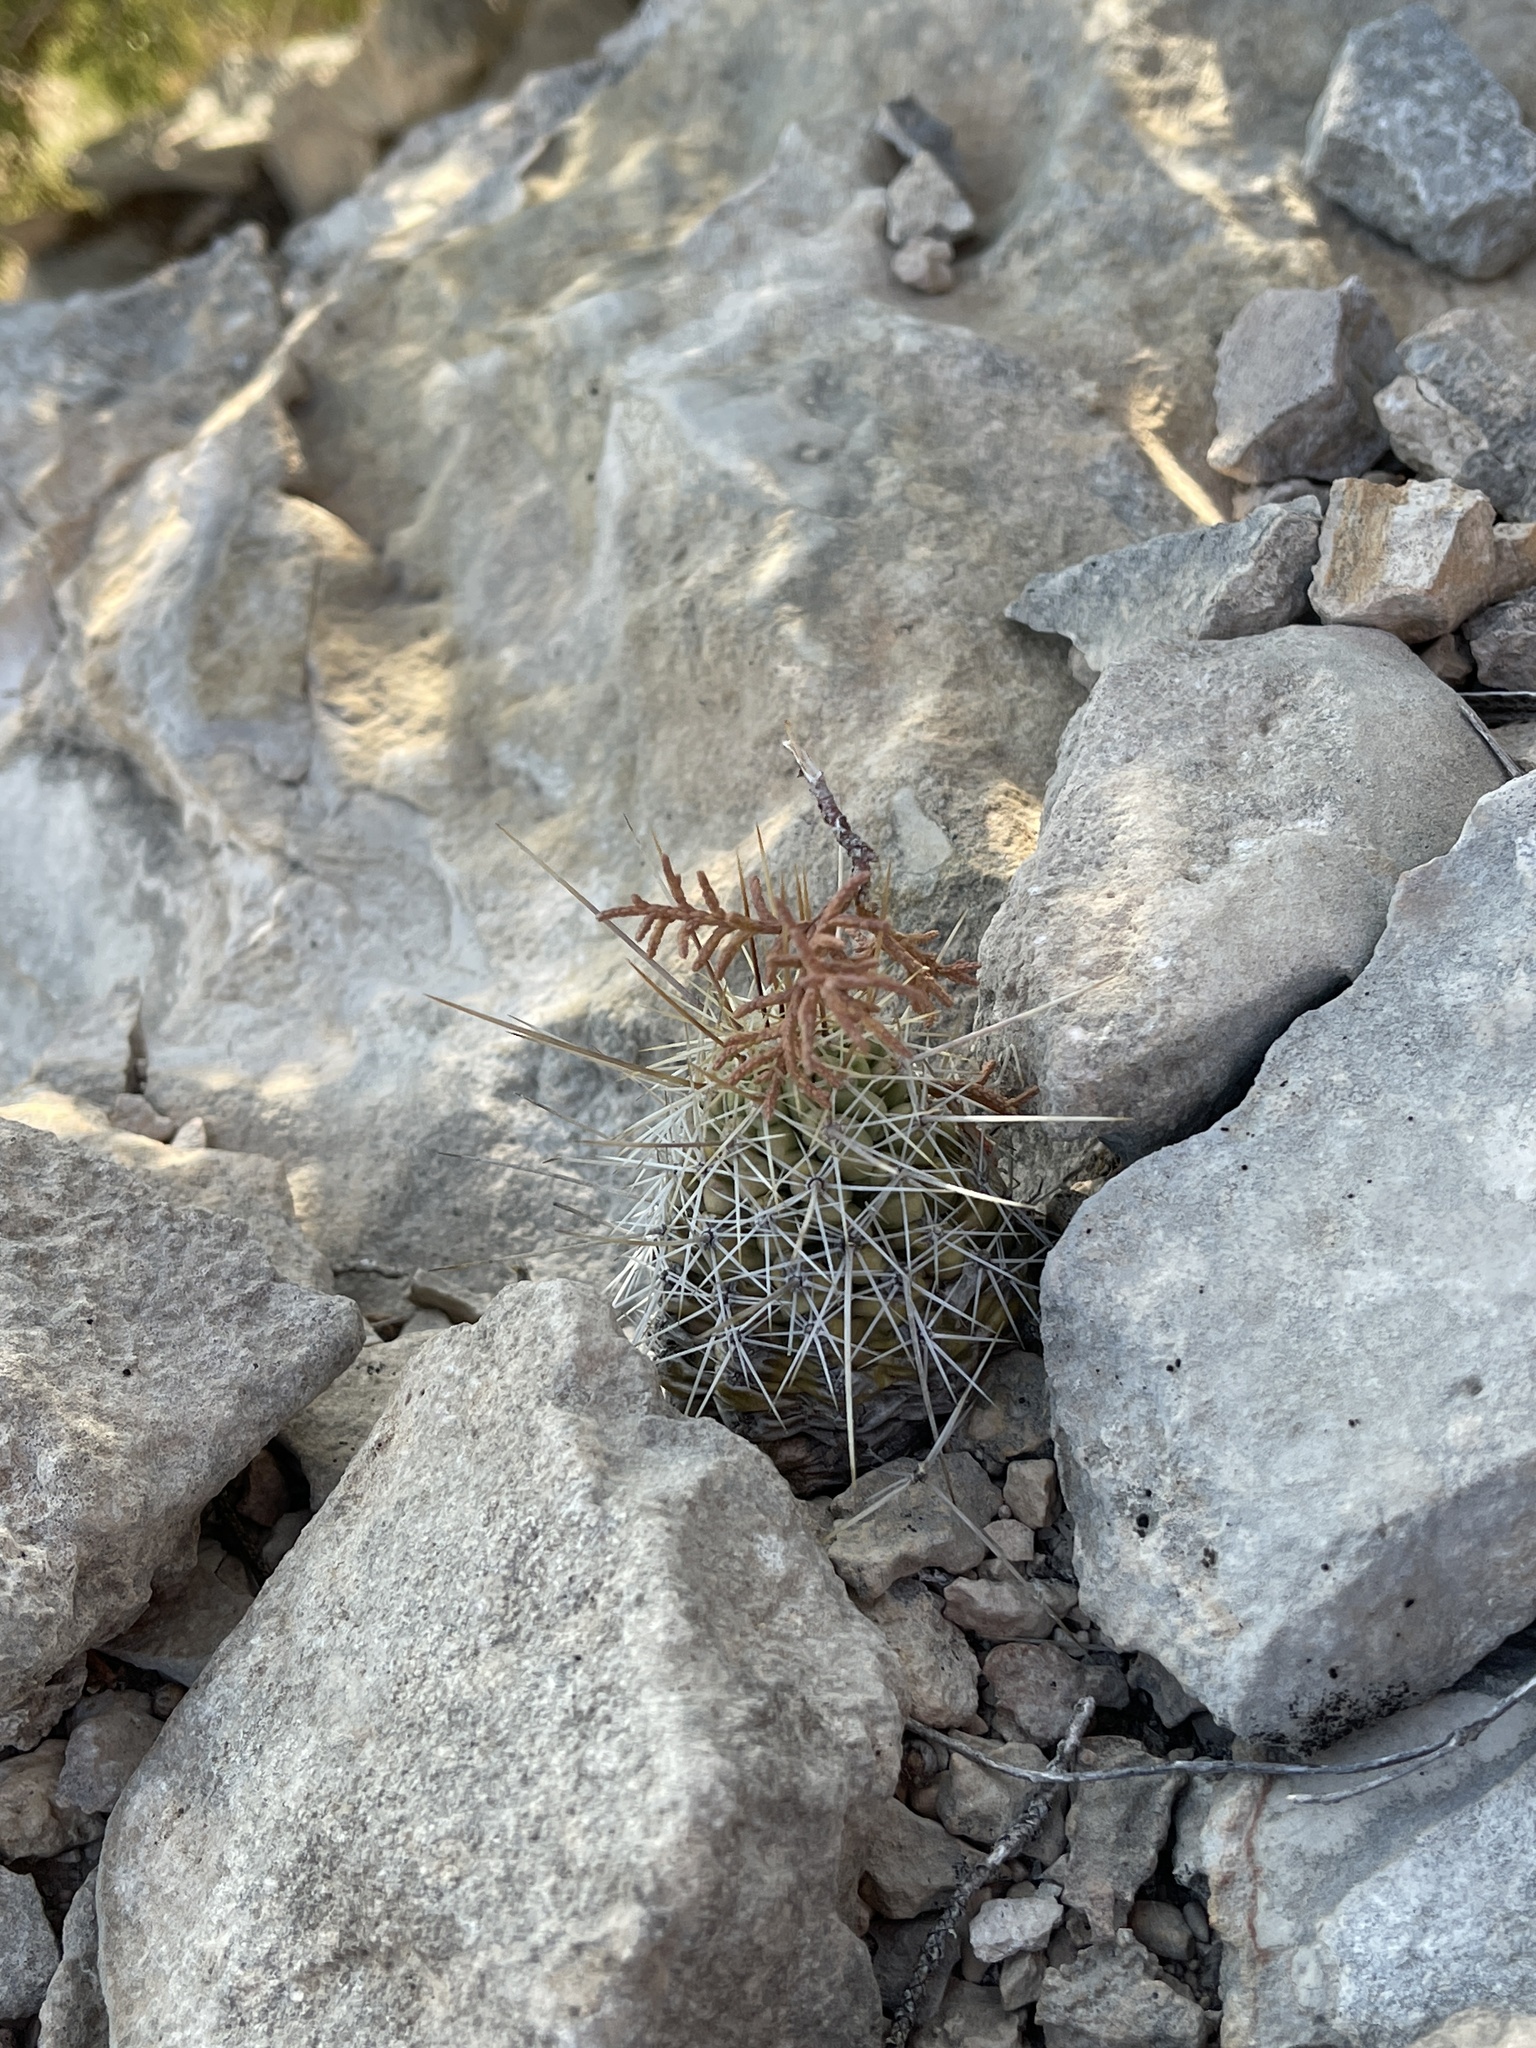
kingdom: Plantae
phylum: Tracheophyta
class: Magnoliopsida
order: Caryophyllales
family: Cactaceae
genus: Echinocereus
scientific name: Echinocereus enneacanthus
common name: Pitaya
